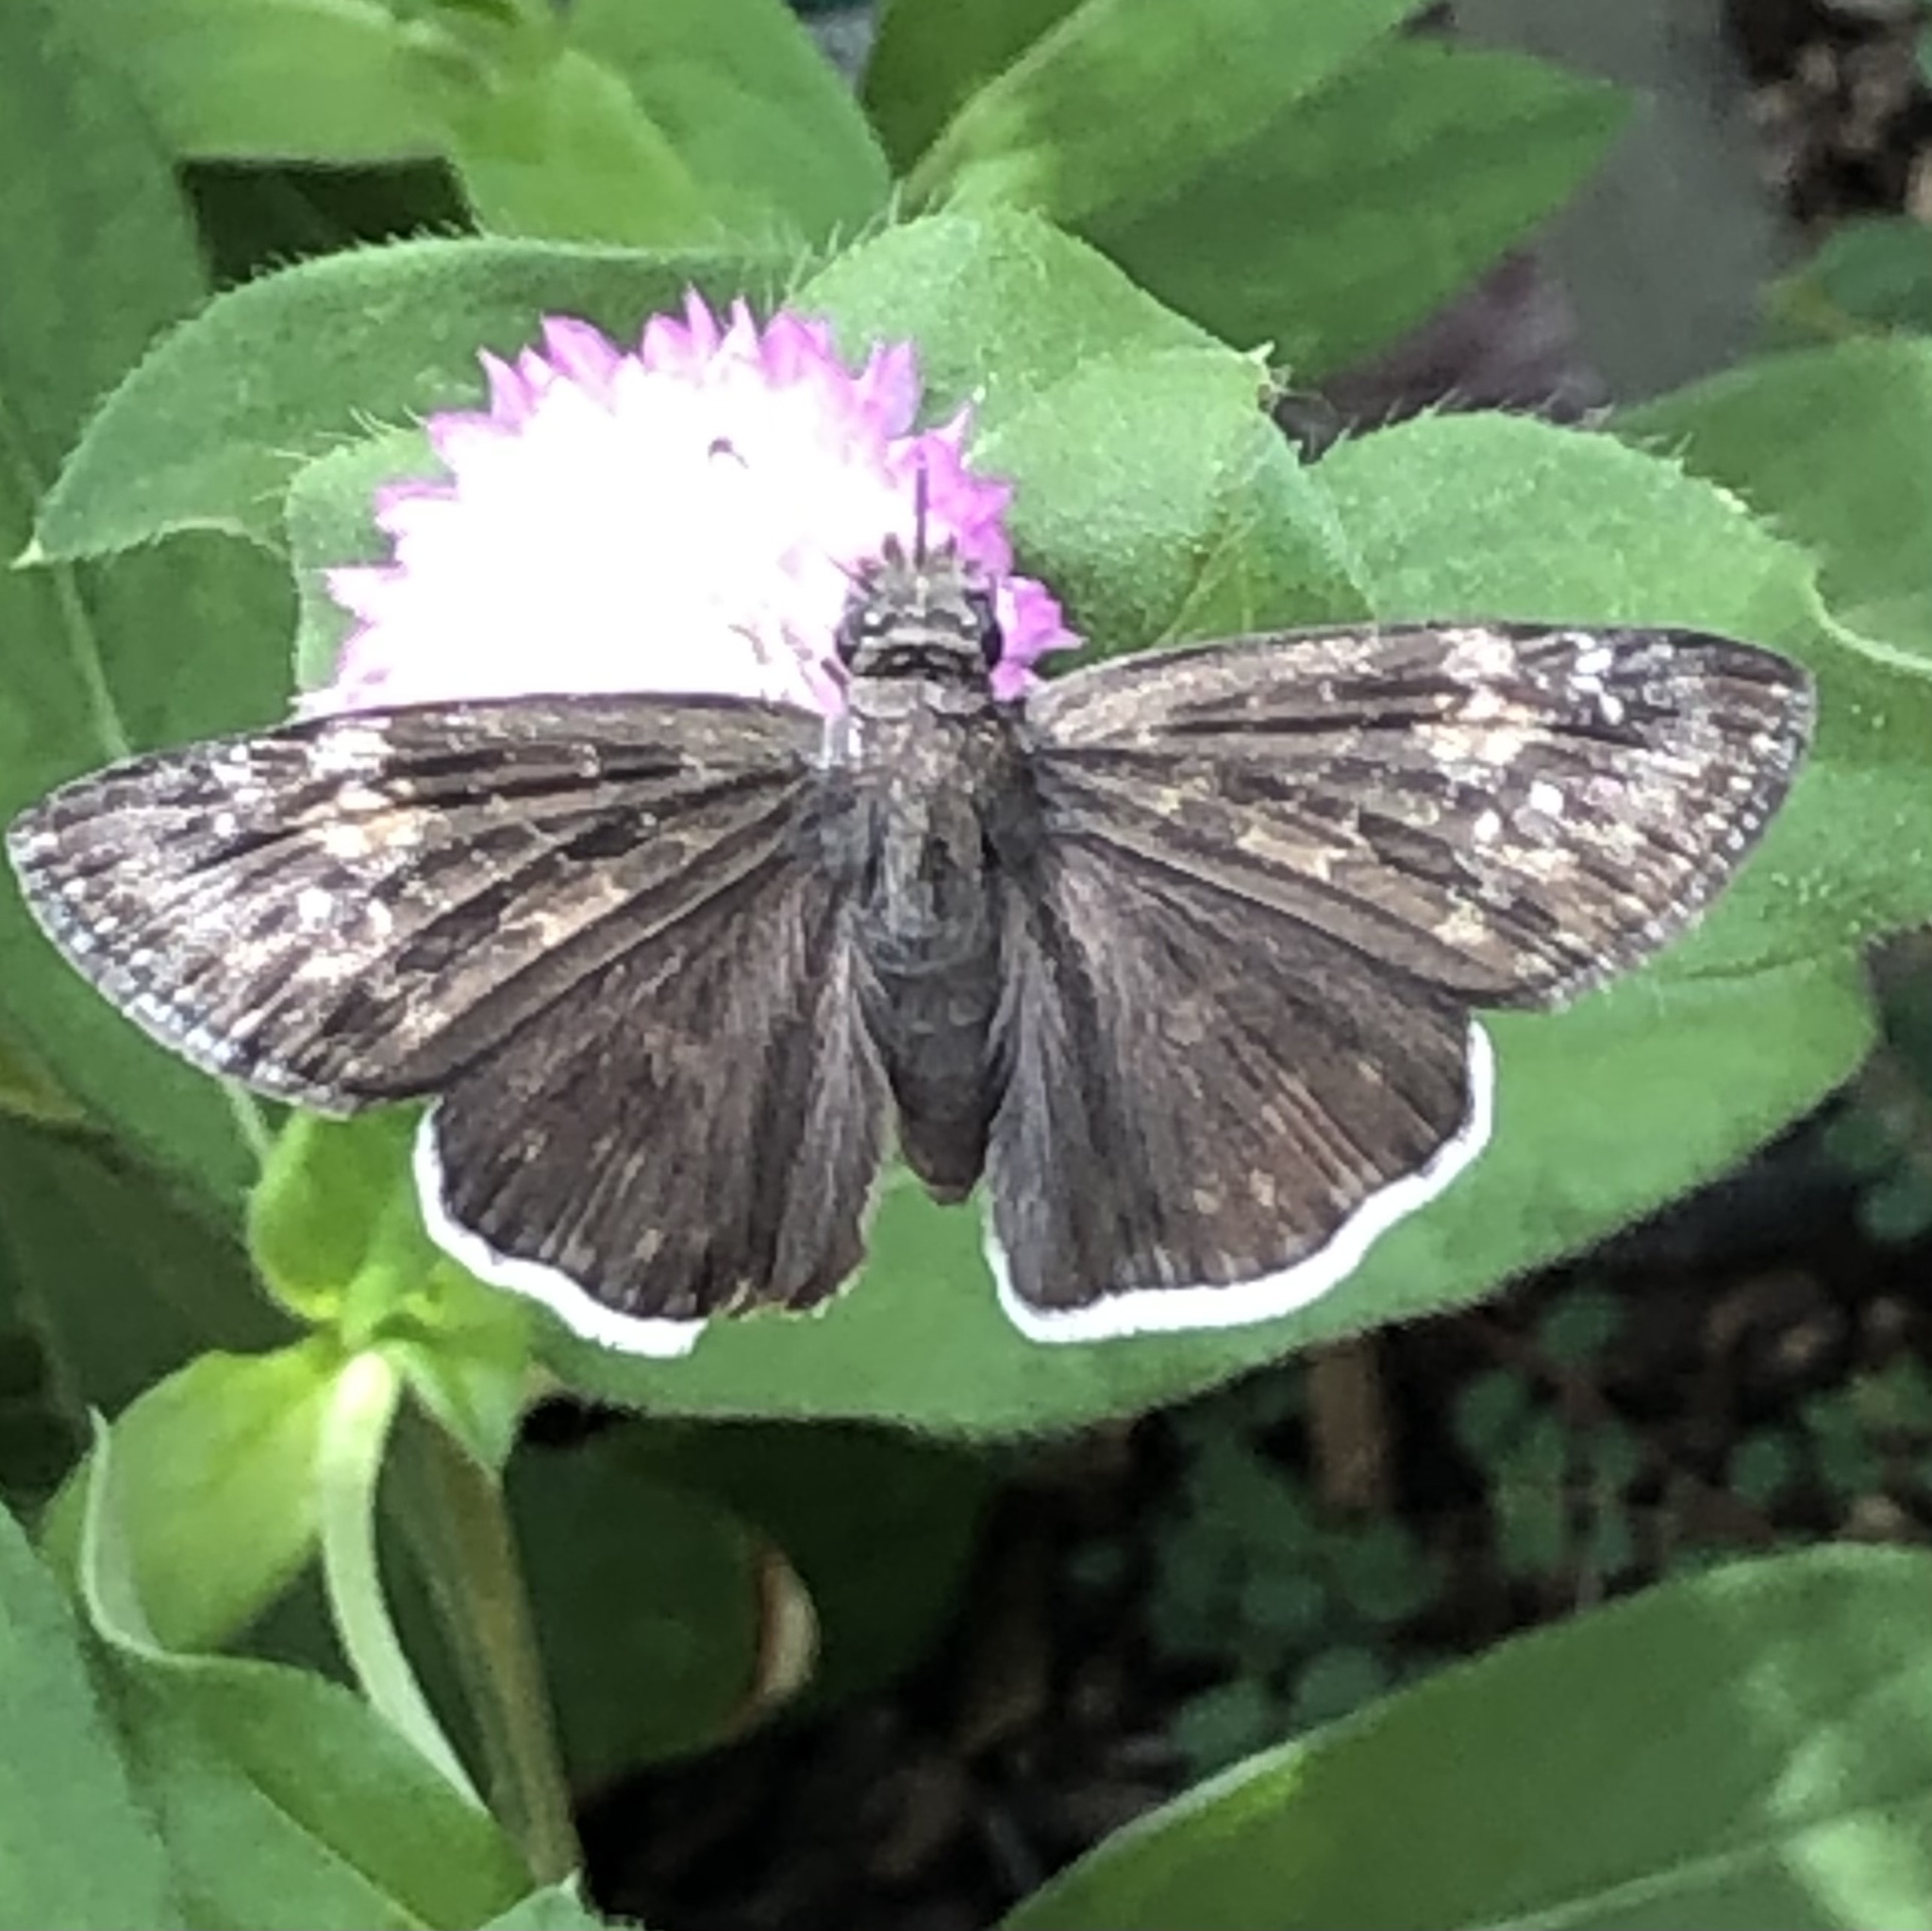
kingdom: Animalia
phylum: Arthropoda
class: Insecta
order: Lepidoptera
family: Hesperiidae
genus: Erynnis
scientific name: Erynnis funeralis
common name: Funereal duskywing
